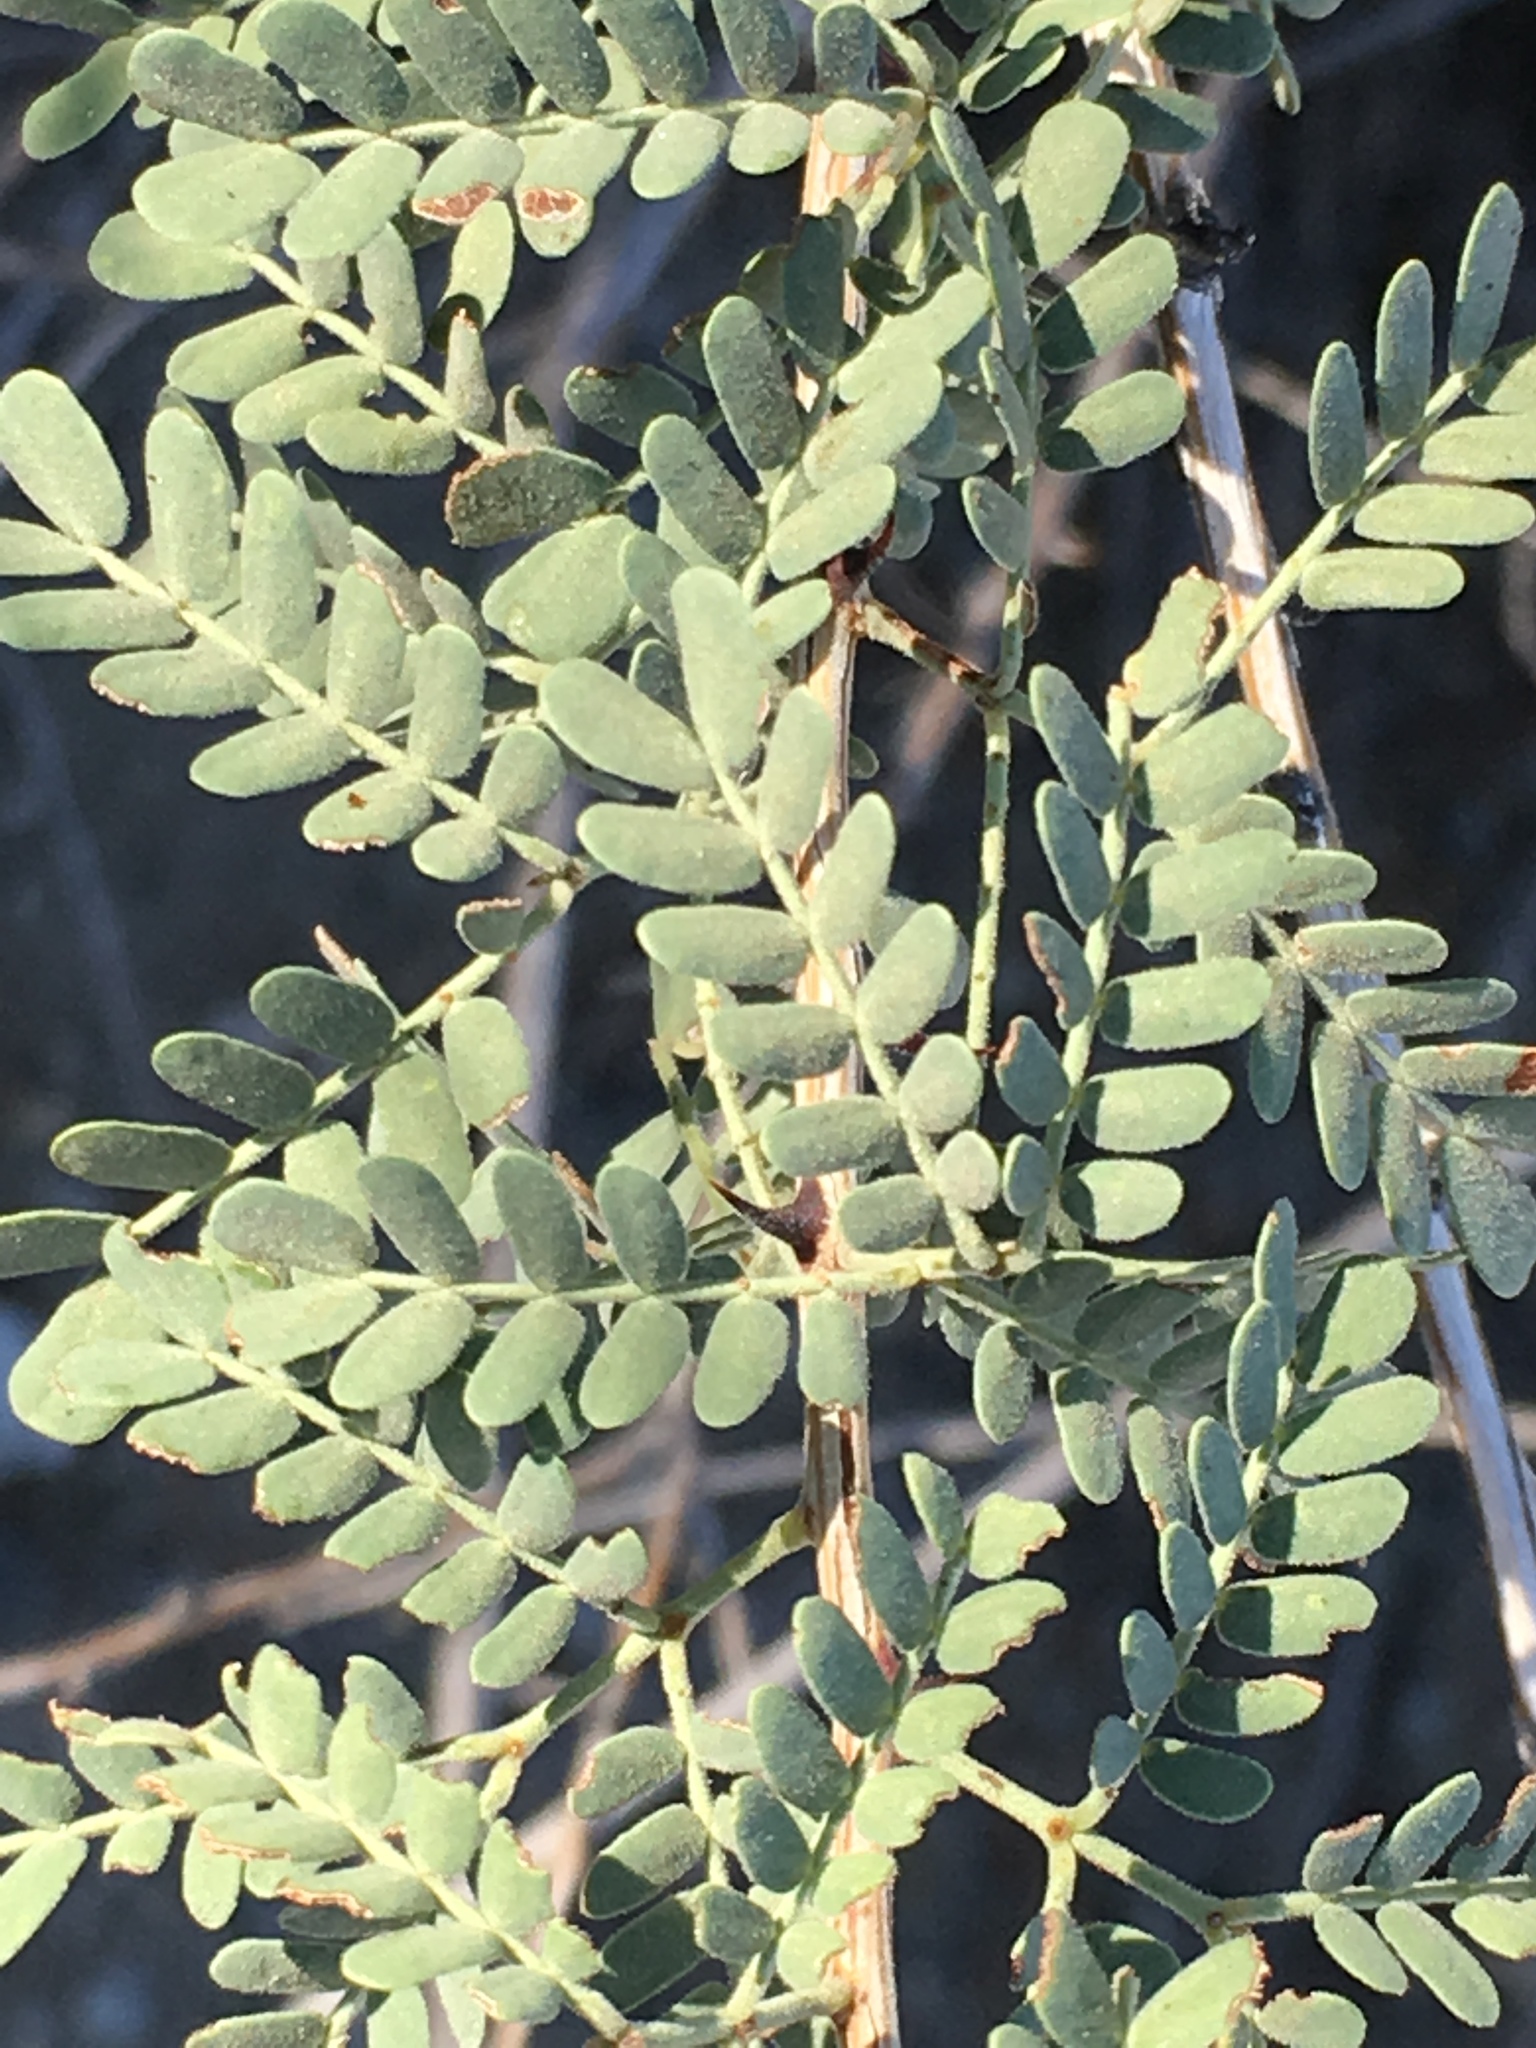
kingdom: Plantae
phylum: Tracheophyta
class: Magnoliopsida
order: Fabales
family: Fabaceae
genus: Senegalia
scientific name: Senegalia greggii
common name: Texas-mimosa
